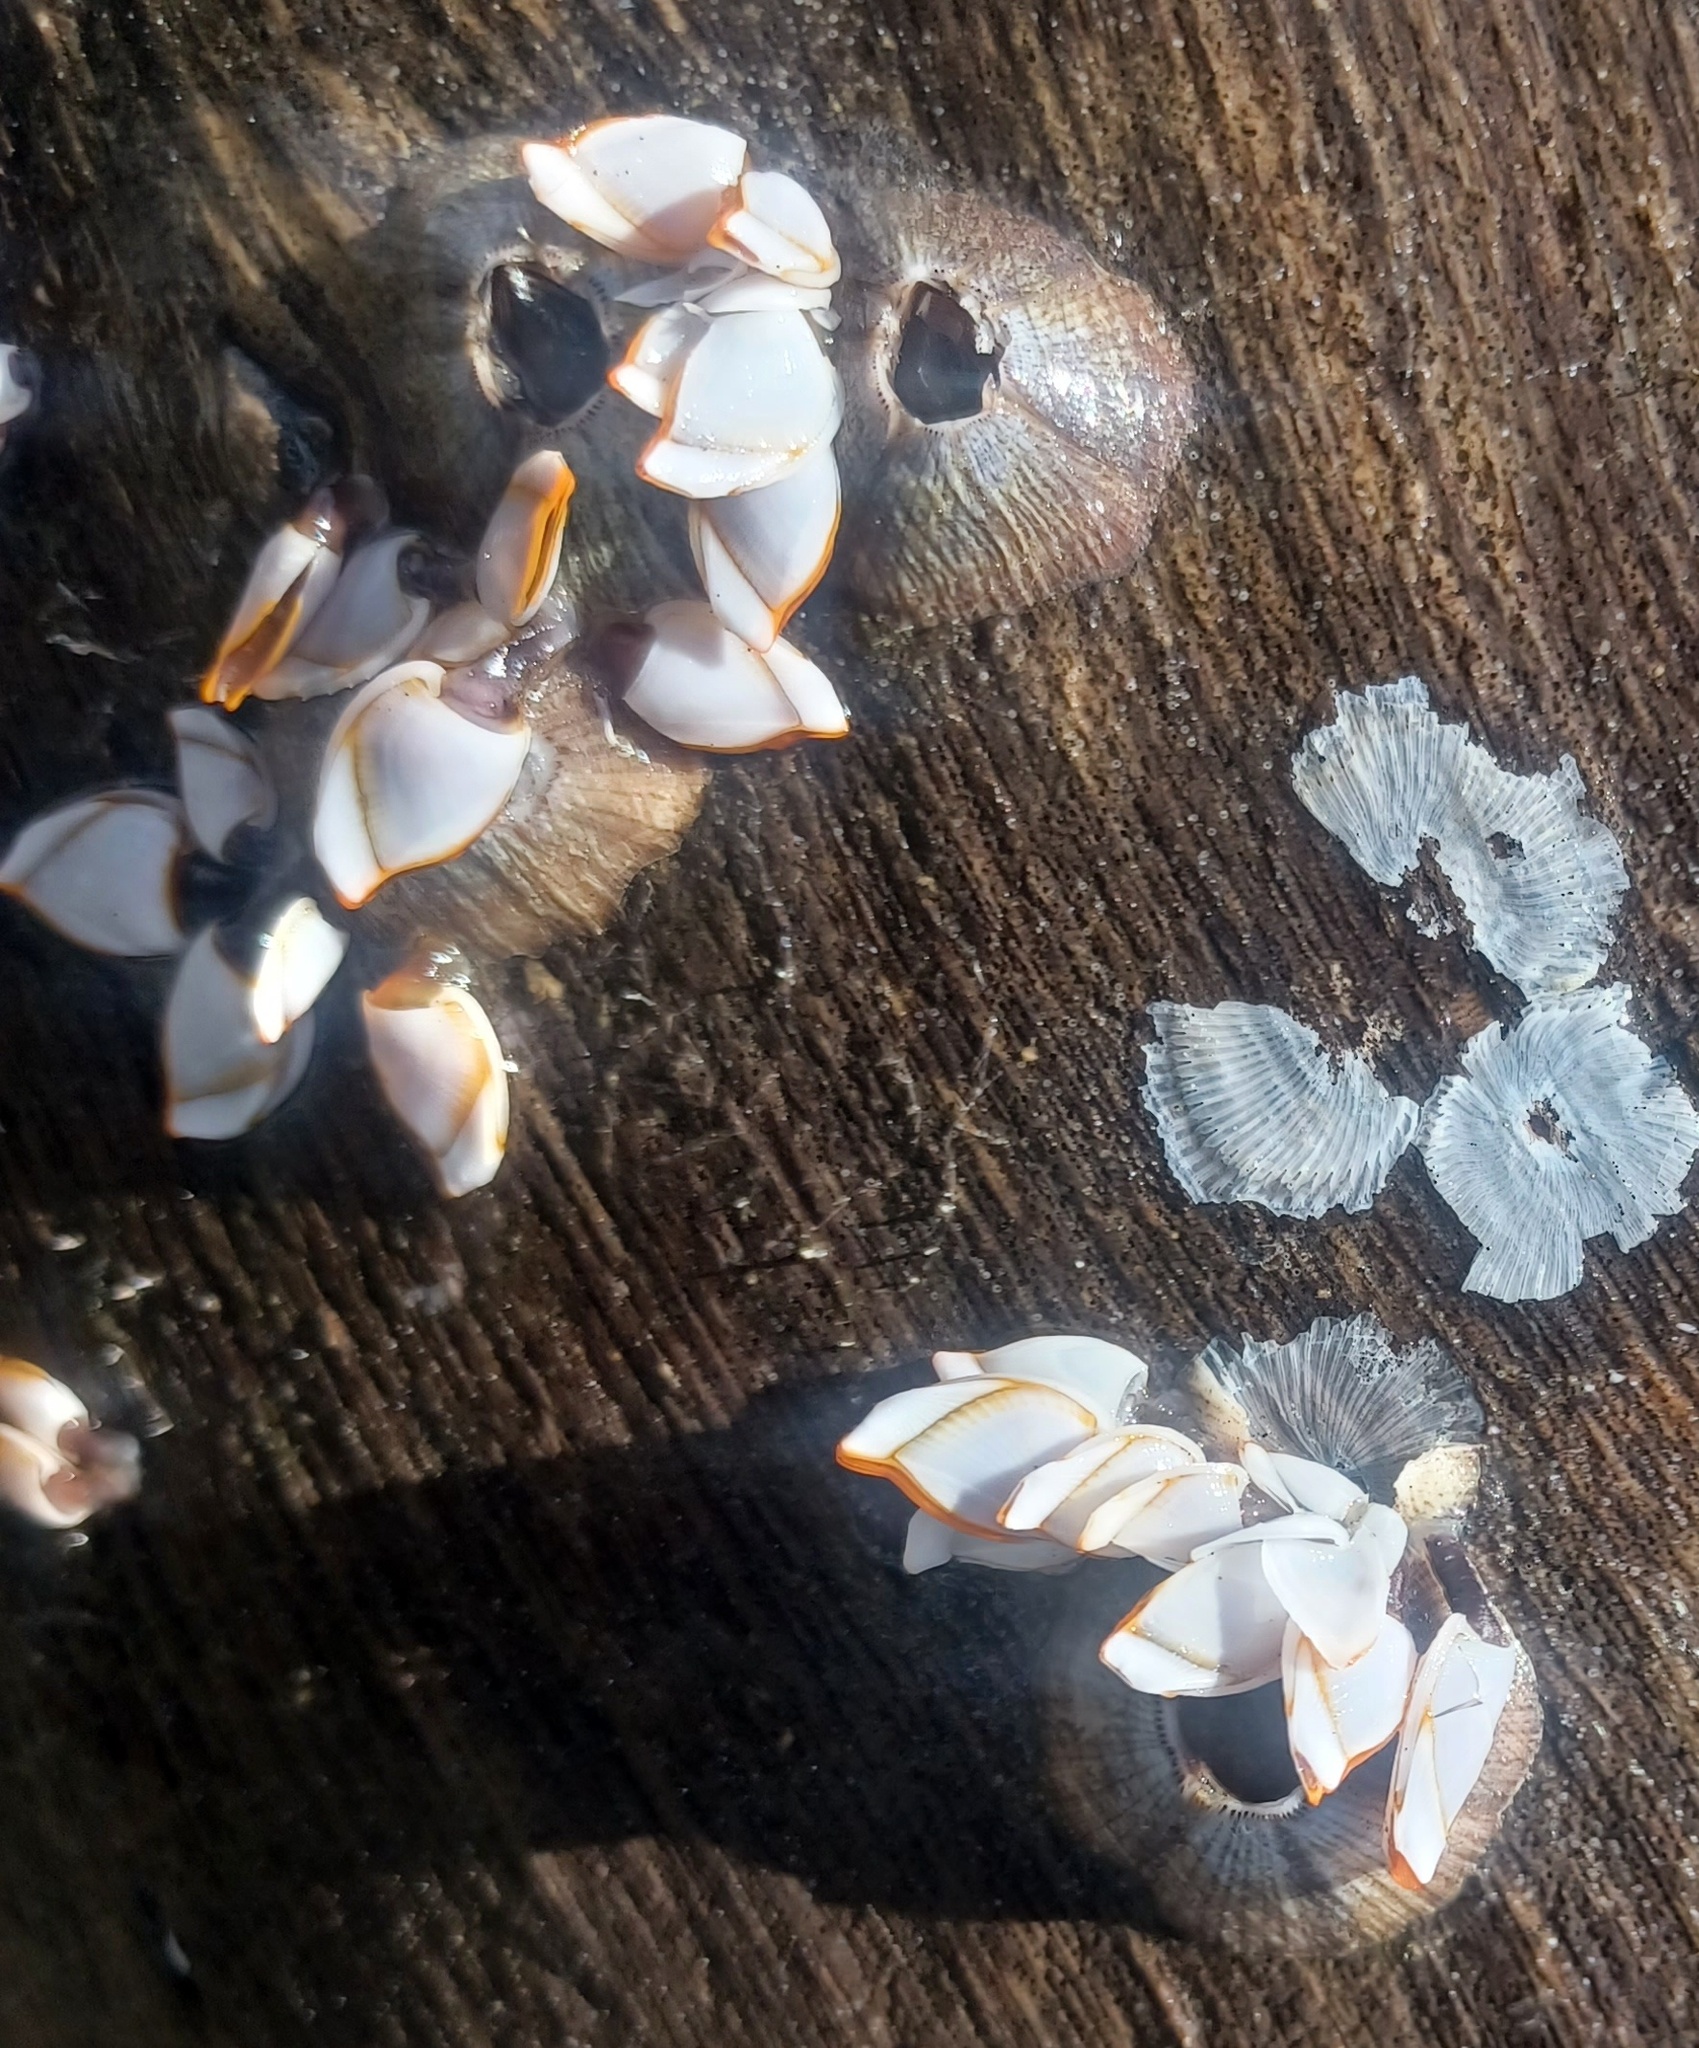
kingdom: Animalia
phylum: Arthropoda
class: Maxillopoda
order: Pedunculata
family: Lepadidae
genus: Lepas
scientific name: Lepas anserifera
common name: Goose barnacle
